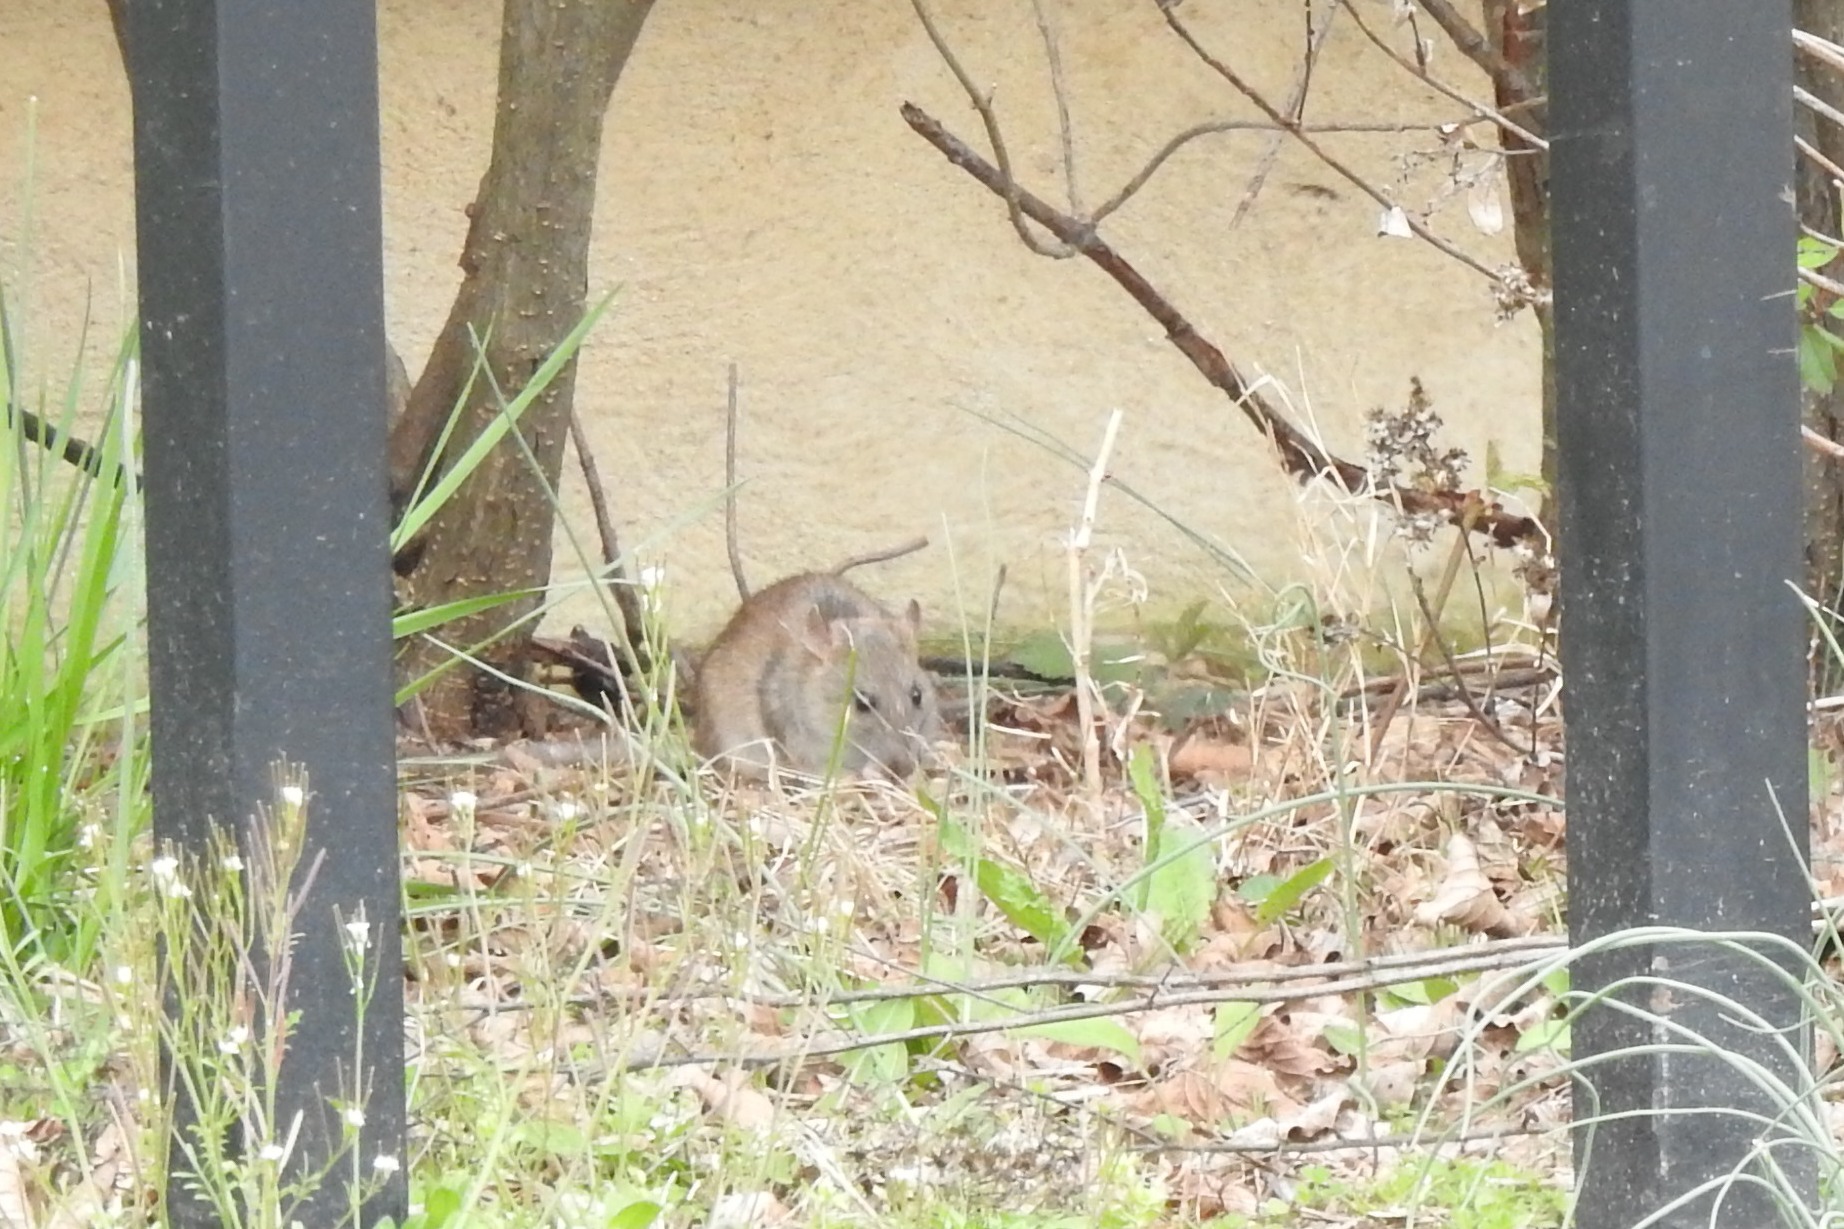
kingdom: Animalia
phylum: Chordata
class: Mammalia
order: Rodentia
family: Muridae
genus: Rattus
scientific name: Rattus norvegicus
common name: Brown rat
